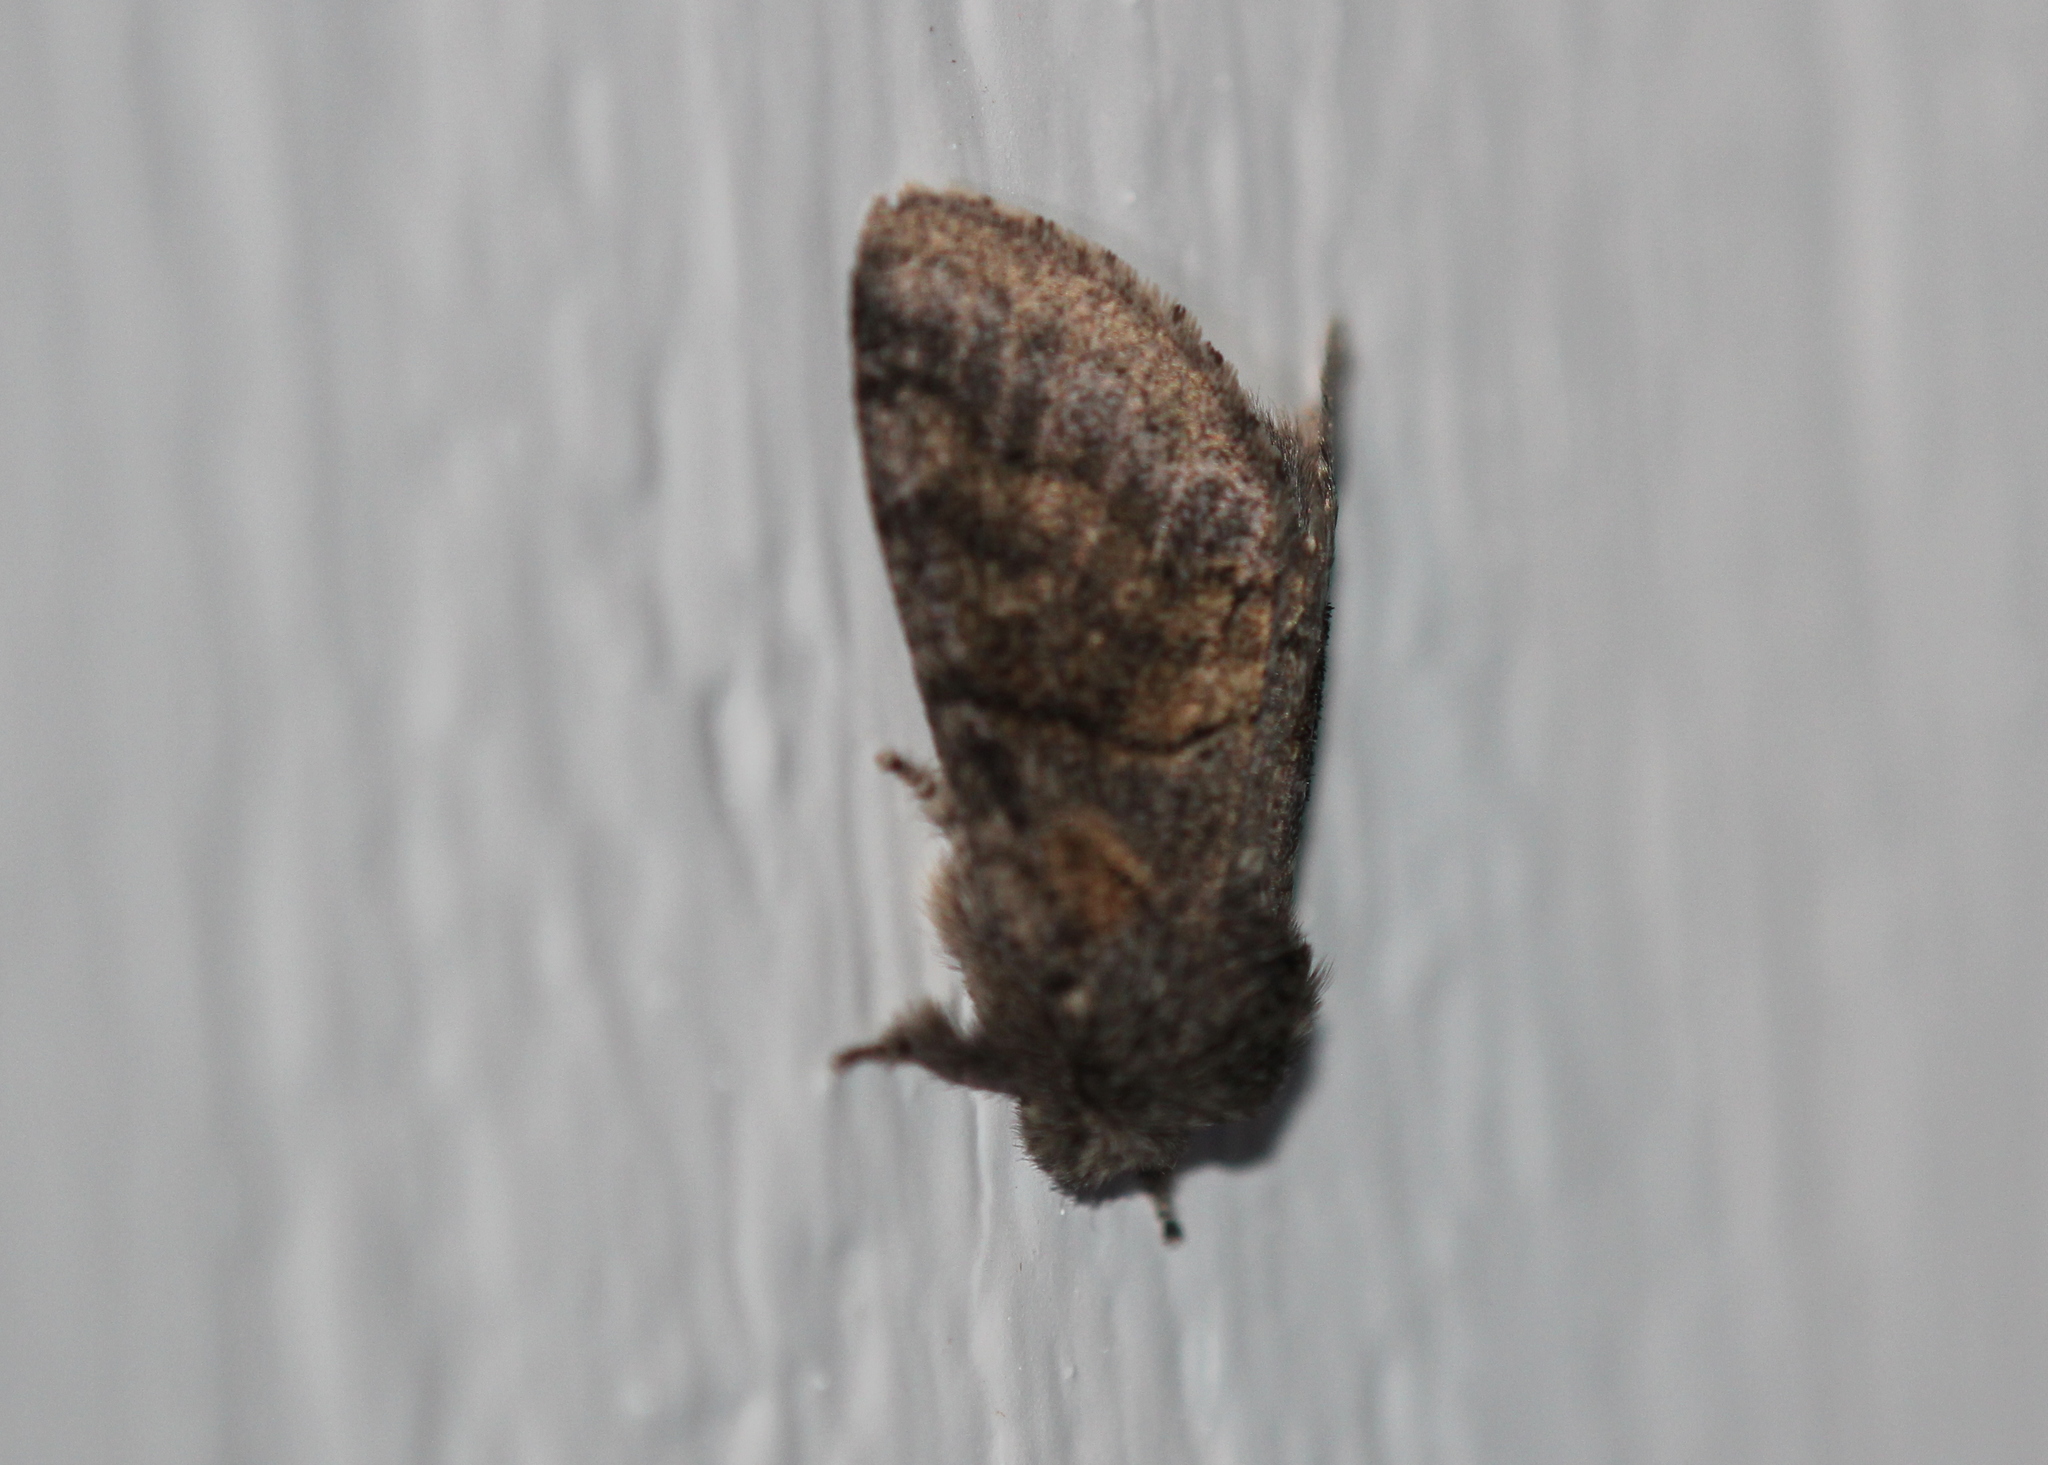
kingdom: Animalia
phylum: Arthropoda
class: Insecta
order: Lepidoptera
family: Notodontidae
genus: Gluphisia
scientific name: Gluphisia septentrionis
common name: Common gluphisia
